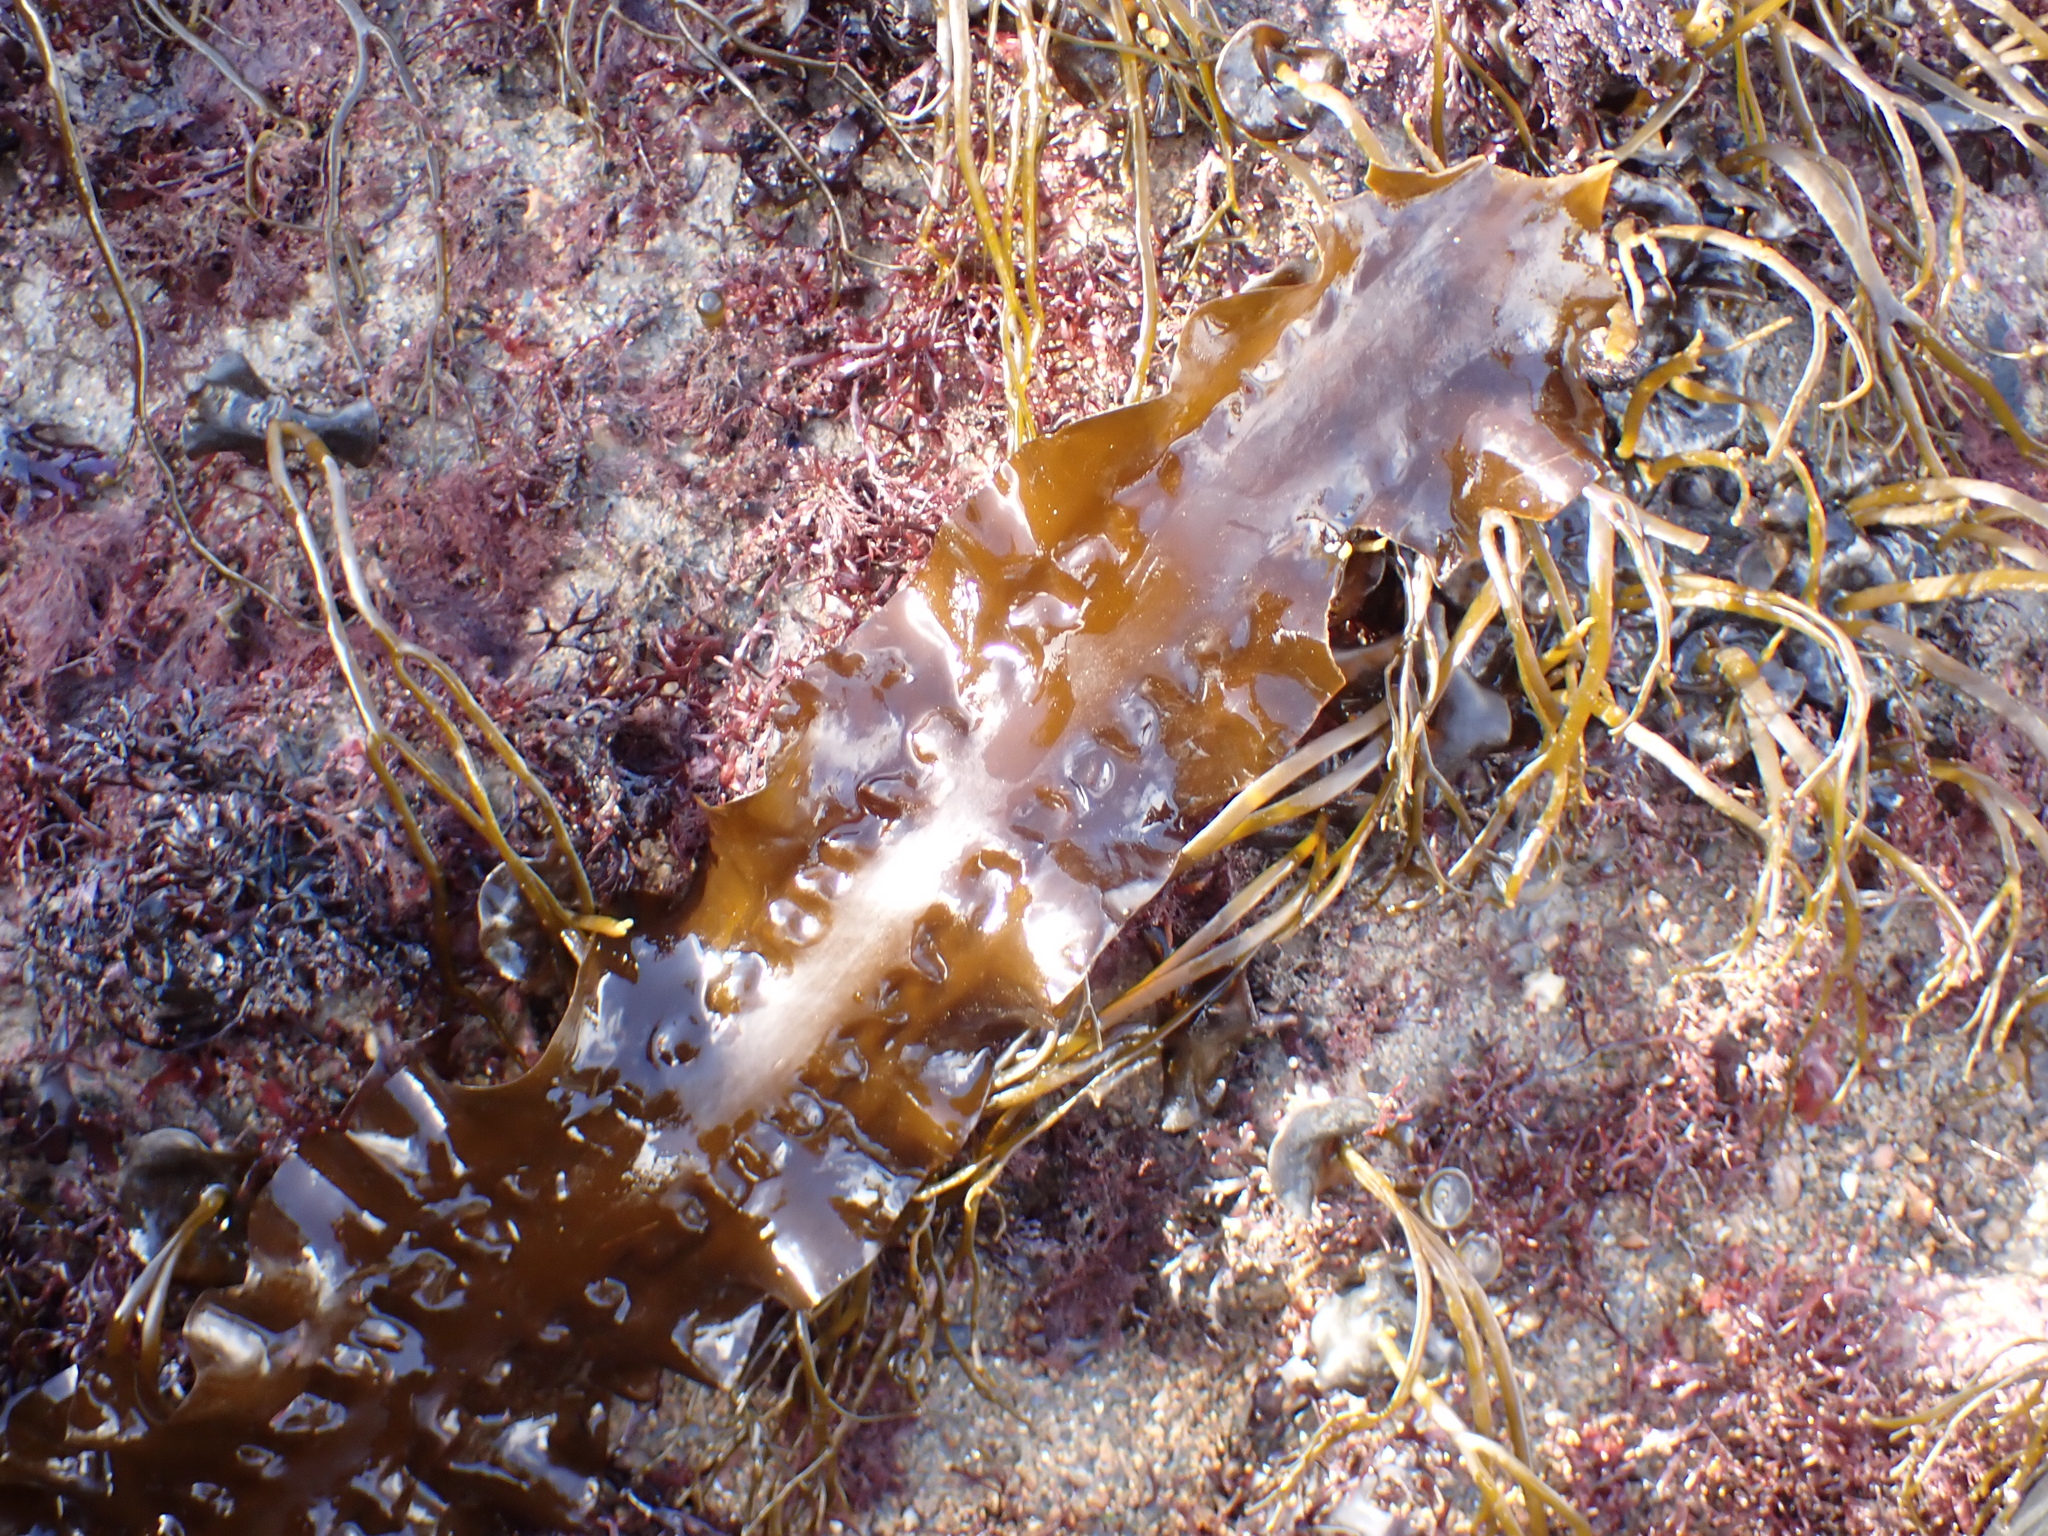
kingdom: Chromista
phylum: Ochrophyta
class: Phaeophyceae
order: Laminariales
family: Laminariaceae
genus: Saccharina
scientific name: Saccharina latissima
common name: Poor man's weather glass
